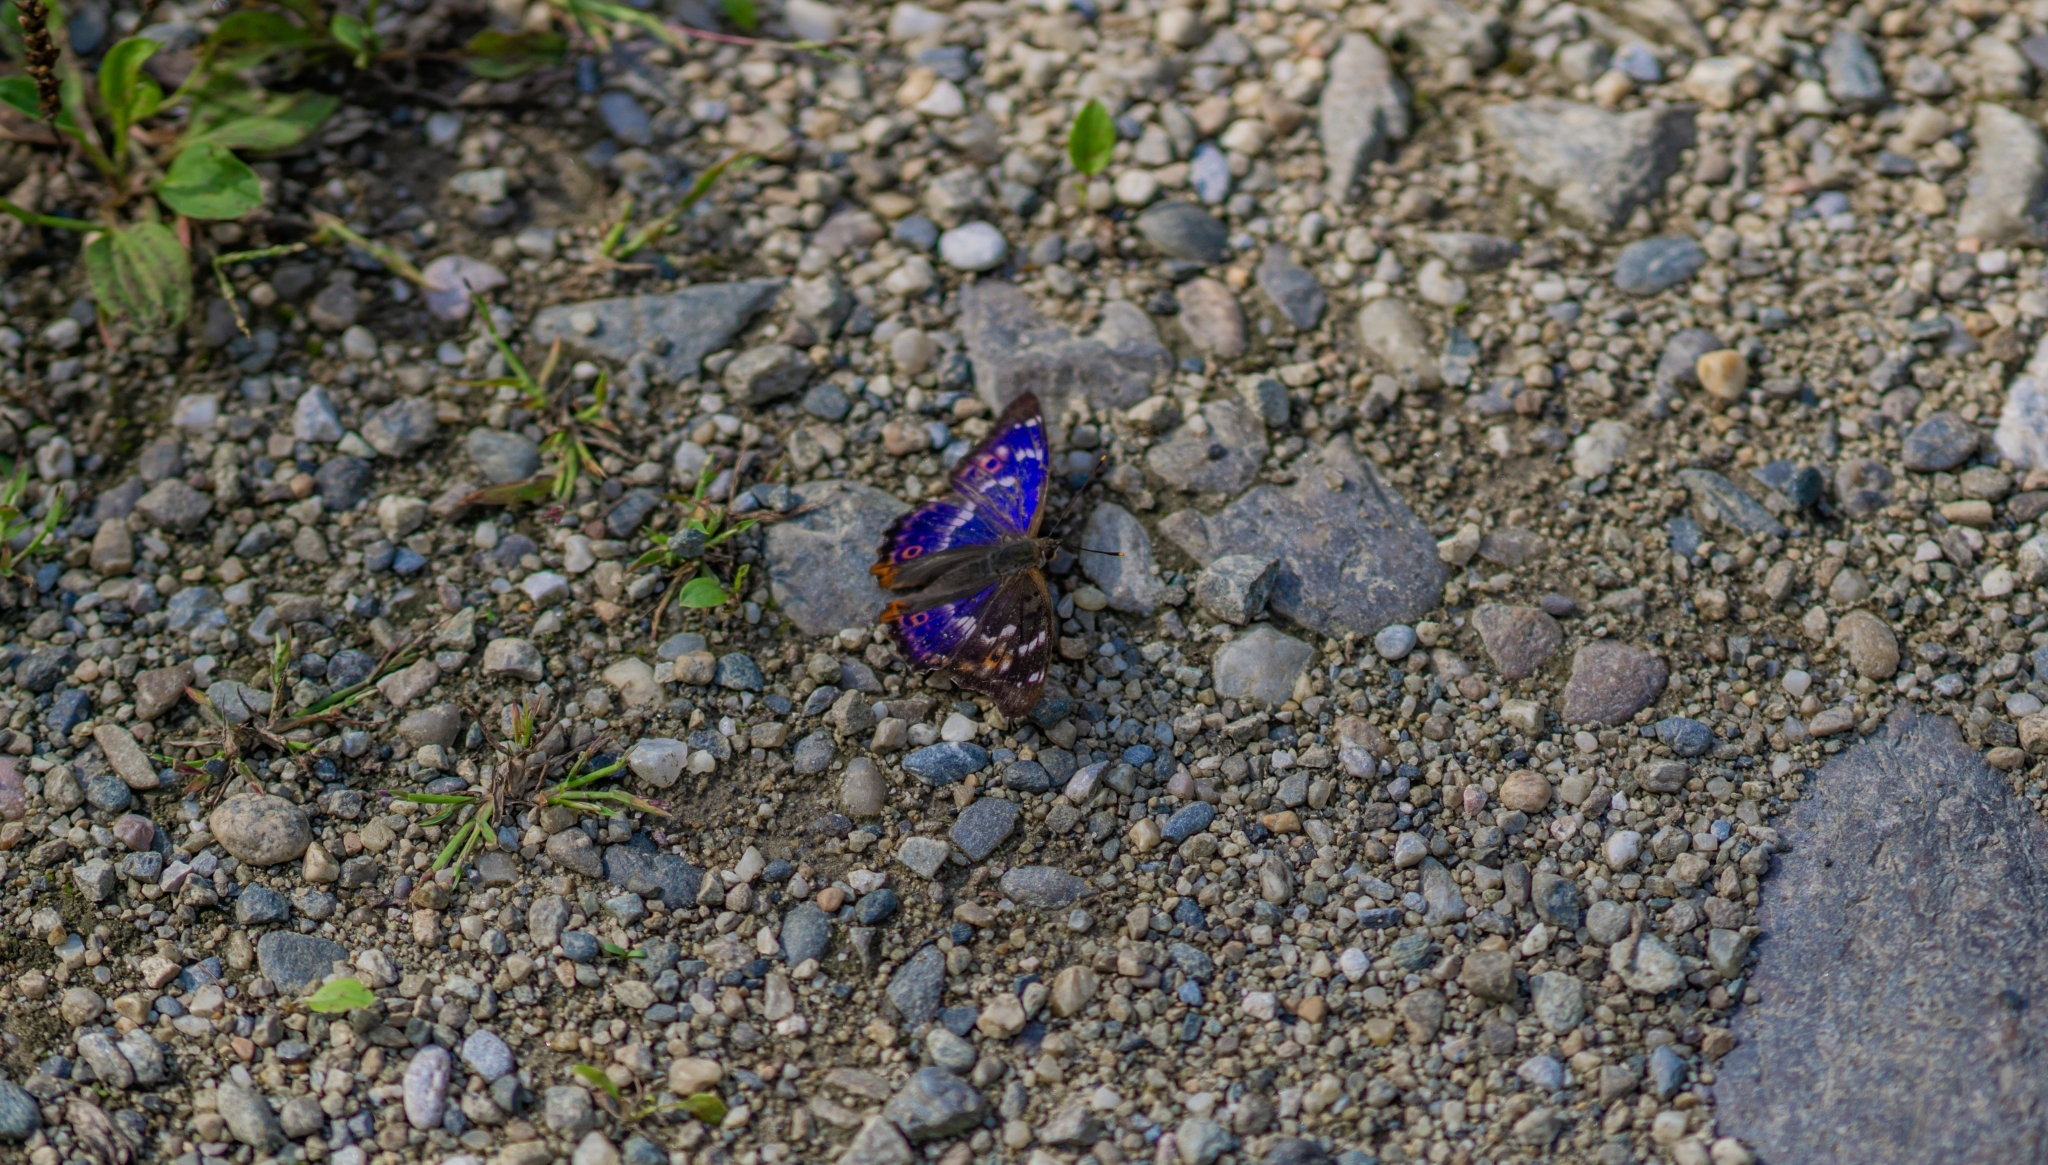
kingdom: Animalia
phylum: Arthropoda
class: Insecta
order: Lepidoptera
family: Nymphalidae
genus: Apatura
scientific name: Apatura ilia
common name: Lesser purple emperor
